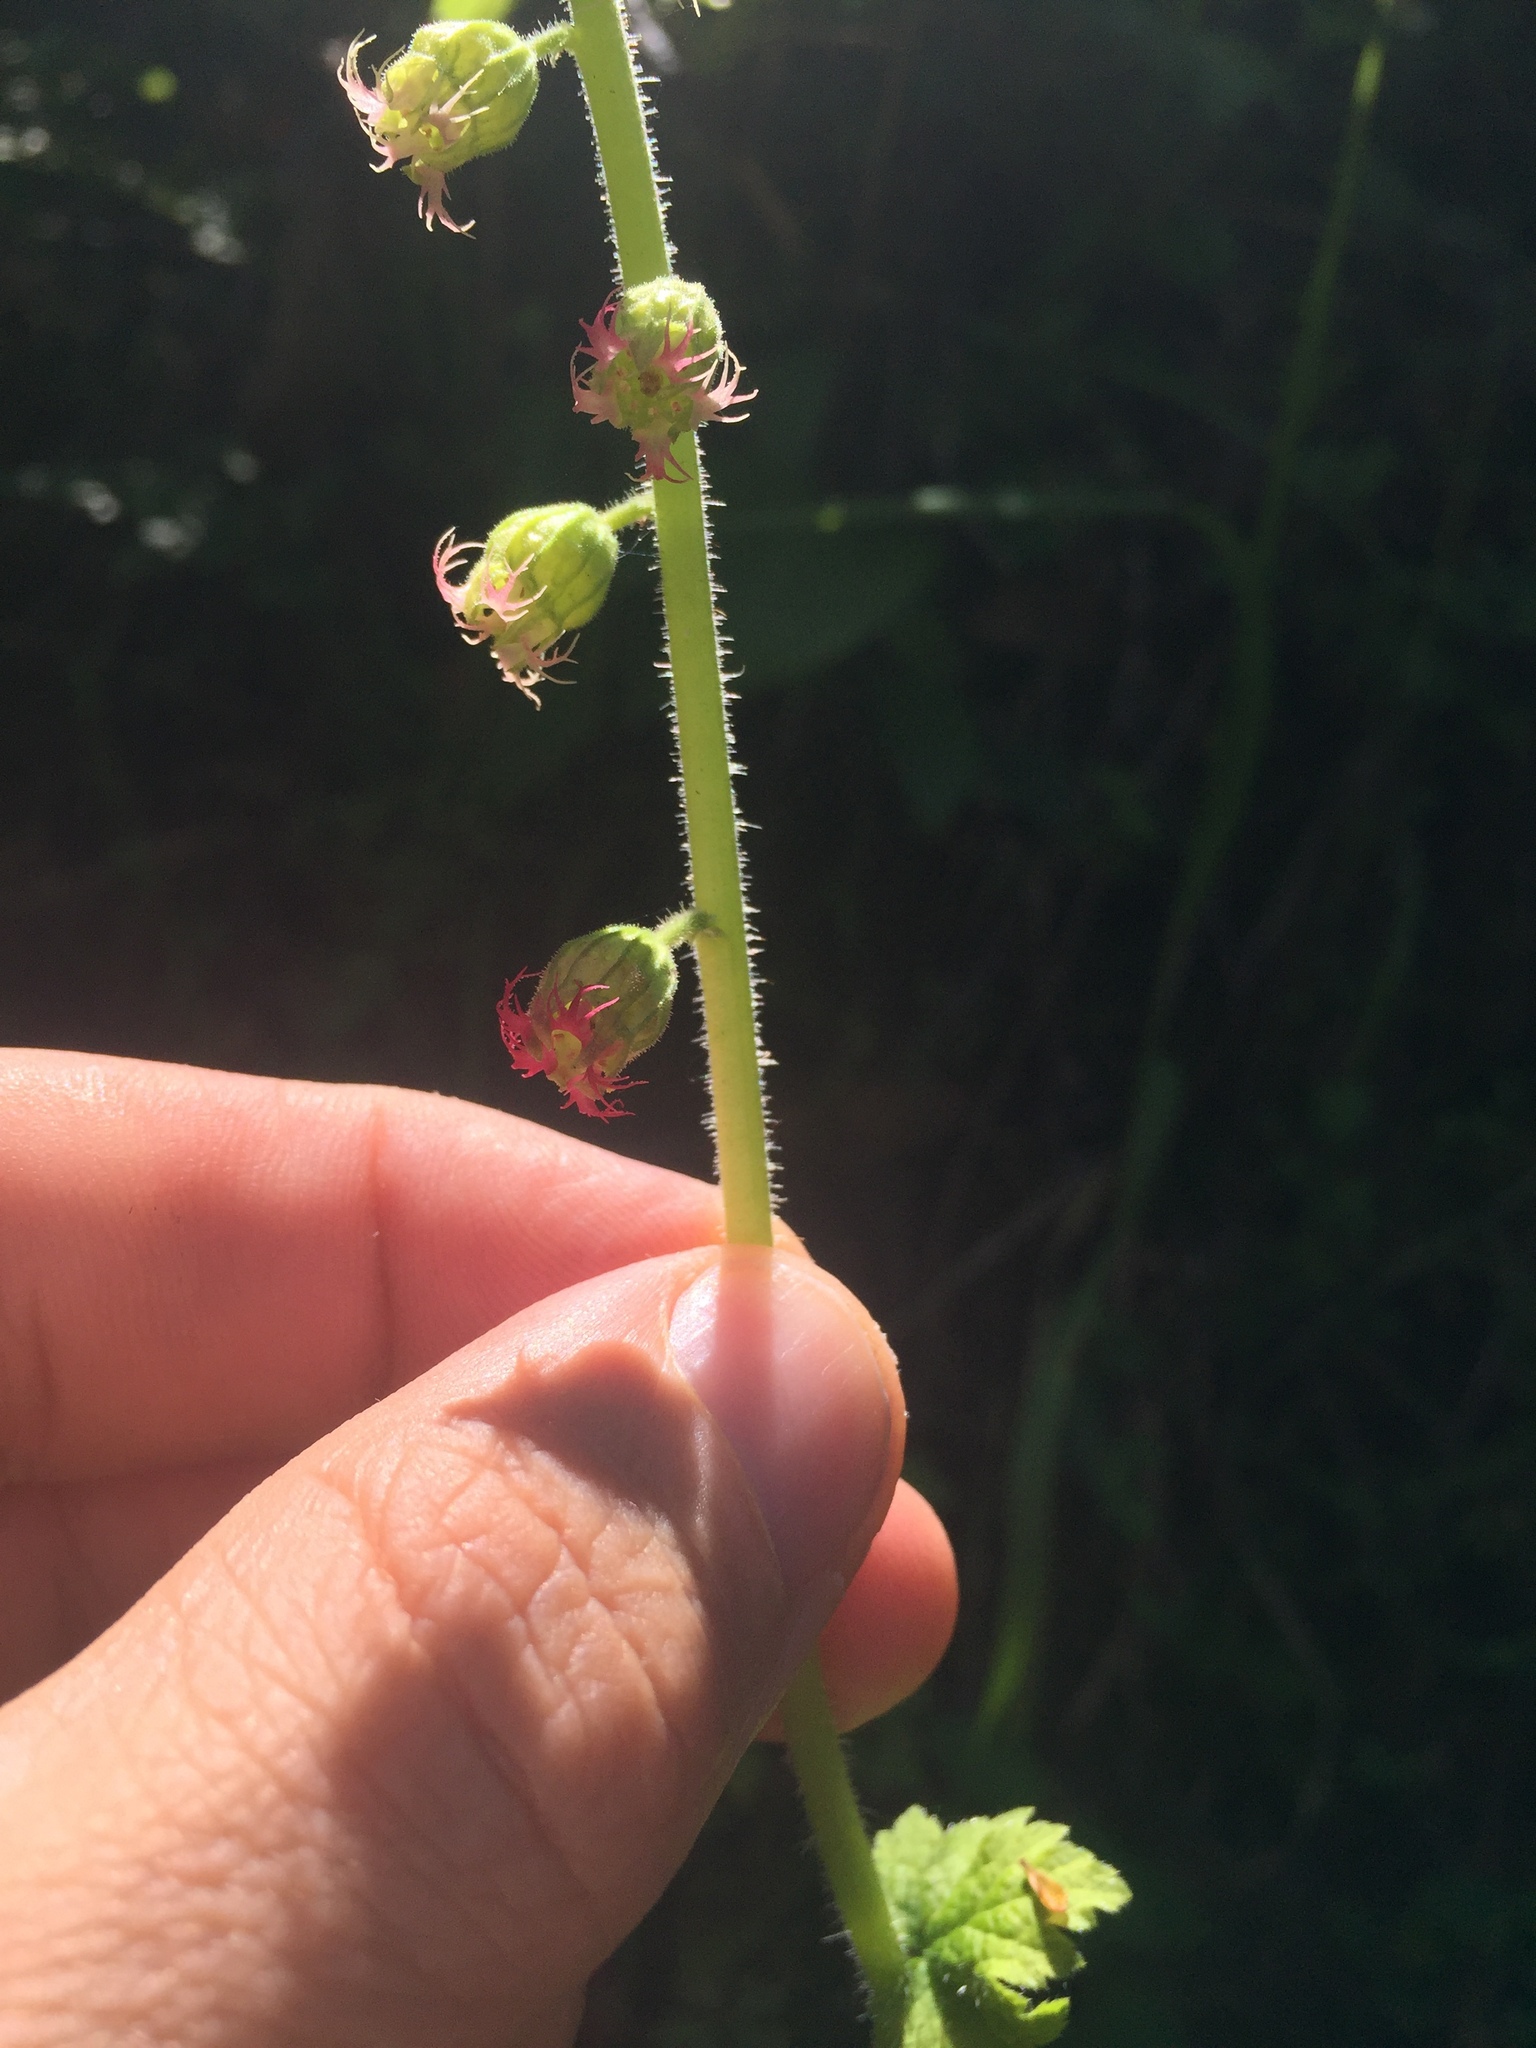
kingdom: Plantae
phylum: Tracheophyta
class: Magnoliopsida
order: Saxifragales
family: Saxifragaceae
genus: Tellima
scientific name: Tellima grandiflora
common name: Fringecups
